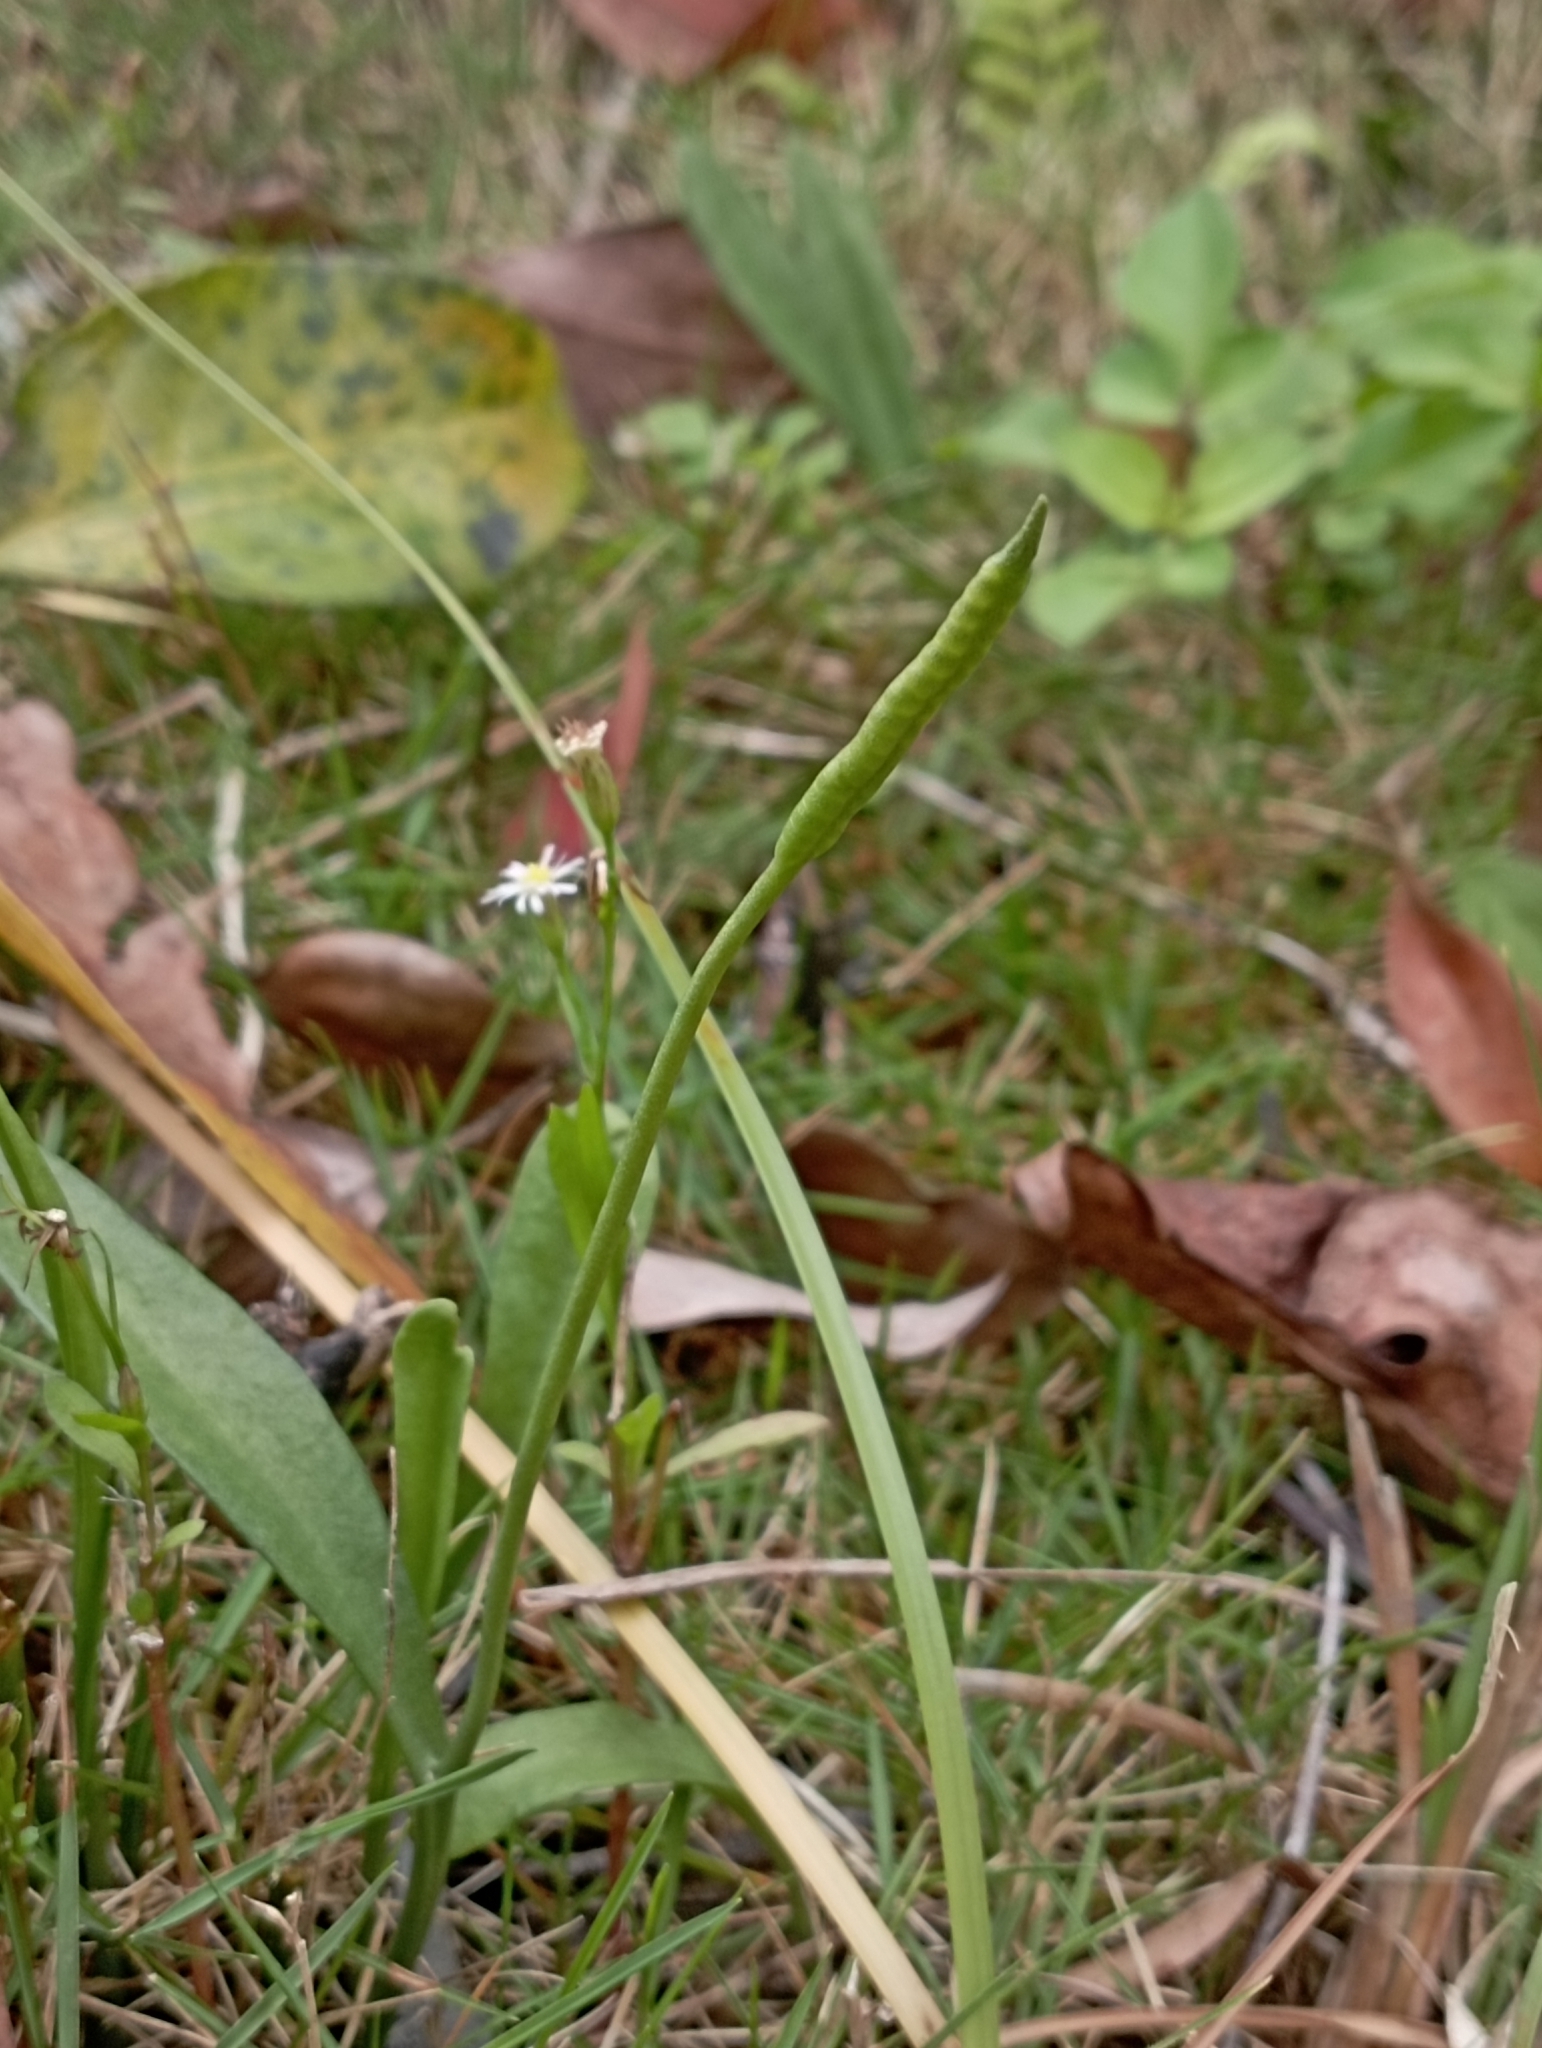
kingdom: Plantae
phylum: Tracheophyta
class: Polypodiopsida
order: Ophioglossales
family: Ophioglossaceae
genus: Ophioglossum
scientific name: Ophioglossum thermale
